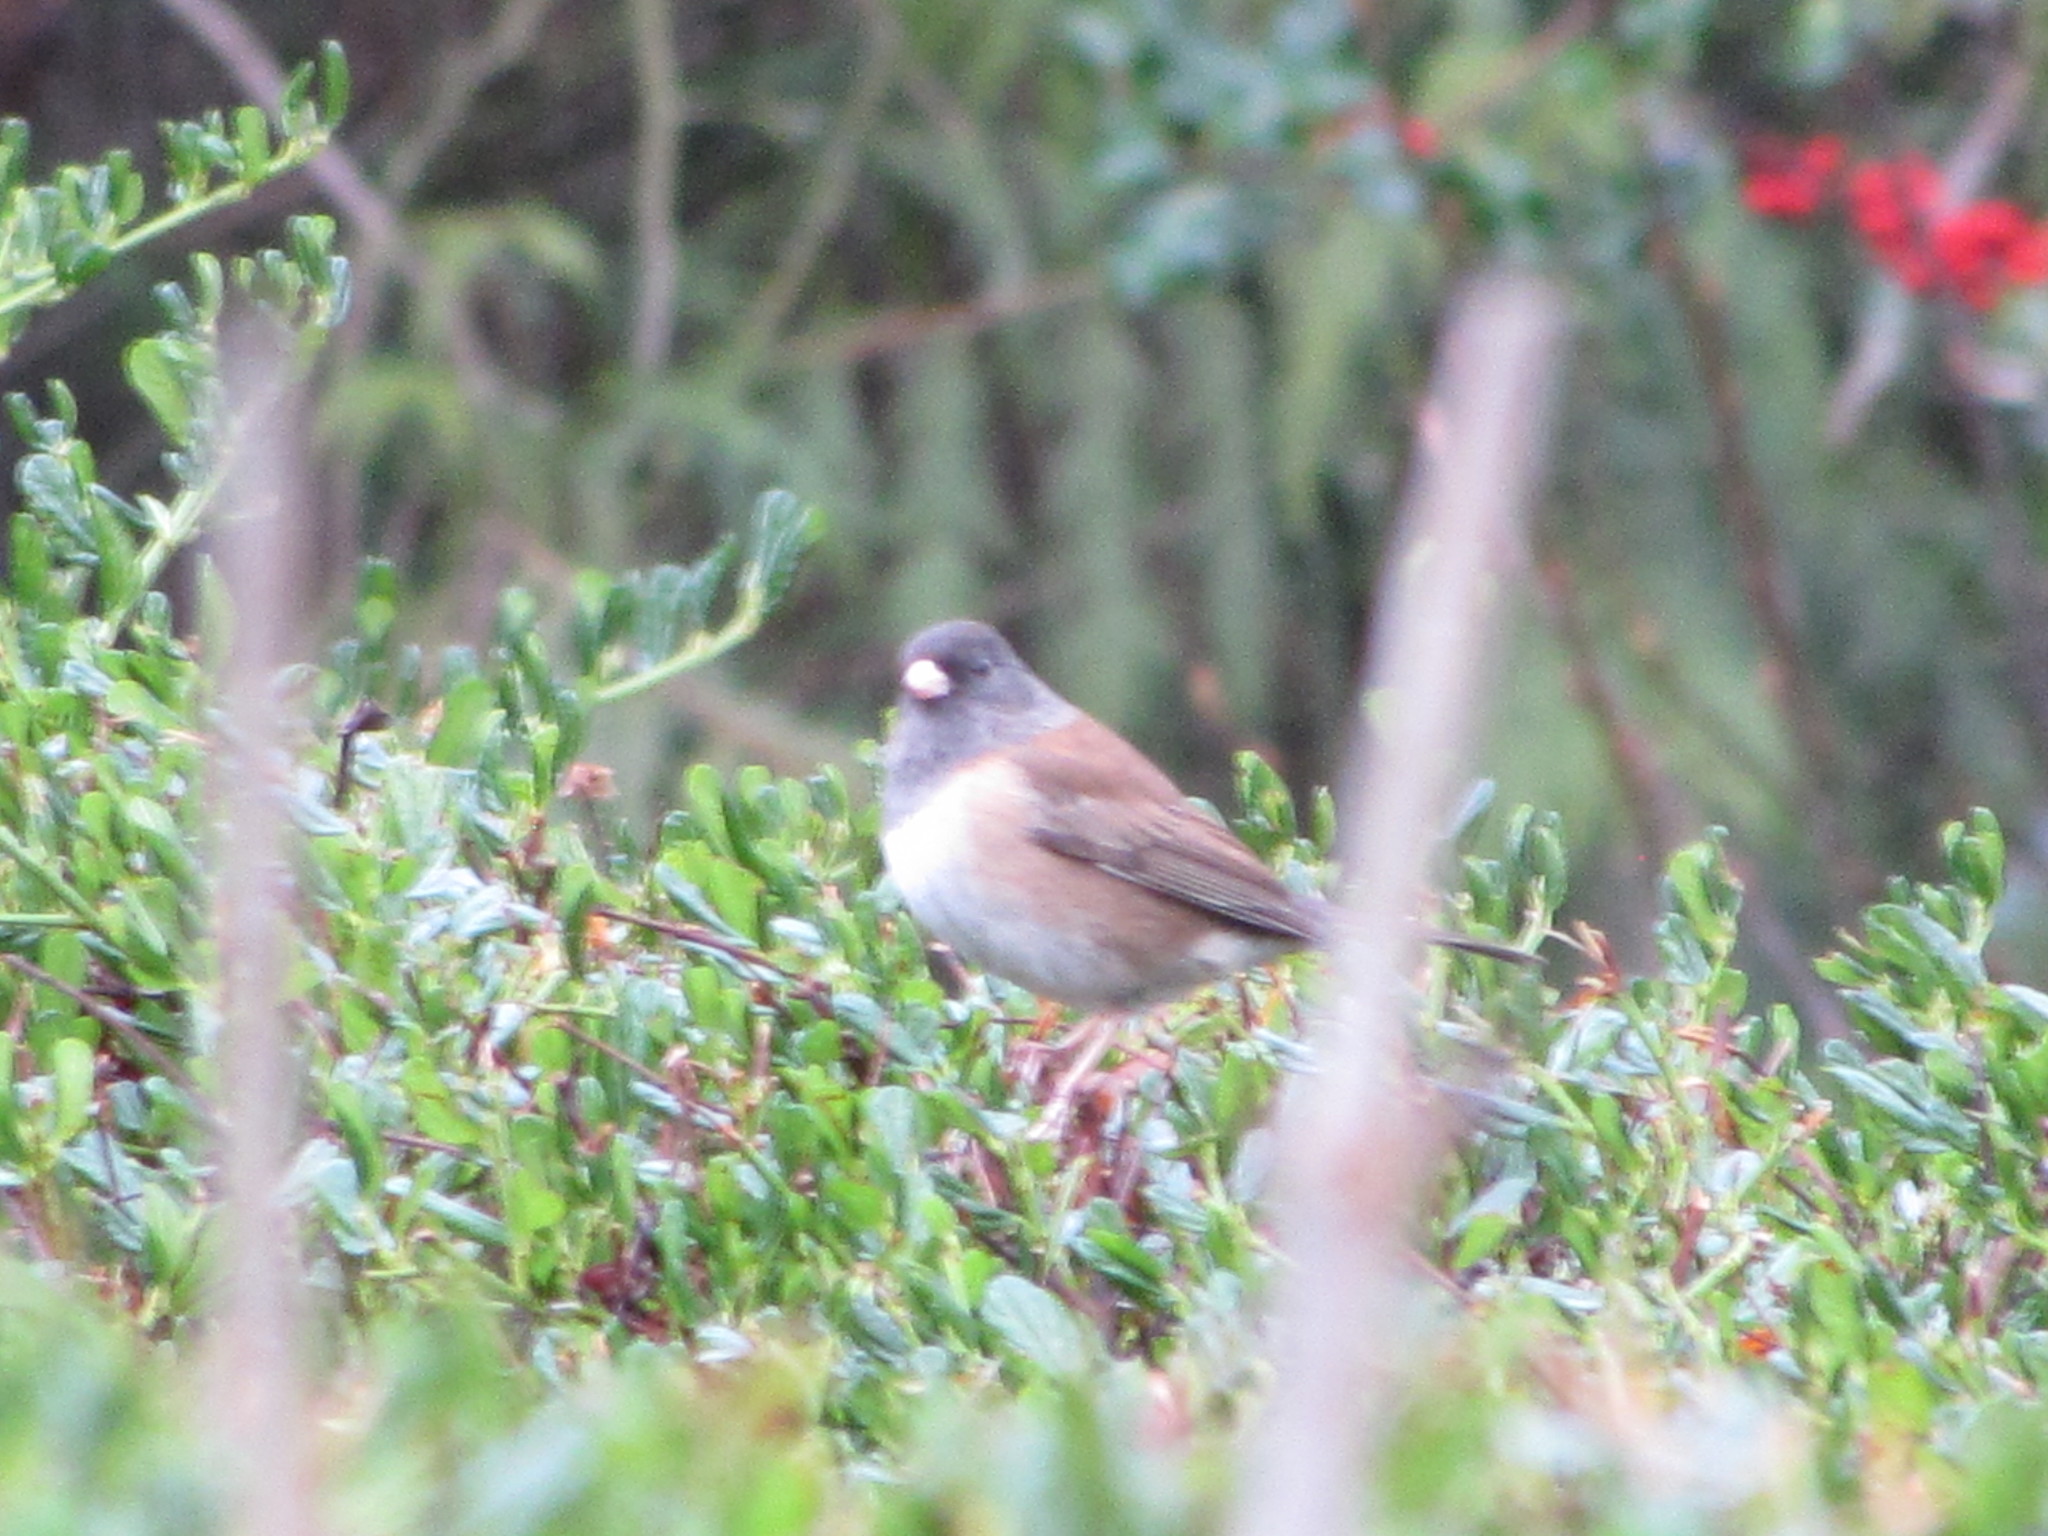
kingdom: Animalia
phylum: Chordata
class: Aves
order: Passeriformes
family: Passerellidae
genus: Junco
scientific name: Junco hyemalis
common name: Dark-eyed junco
